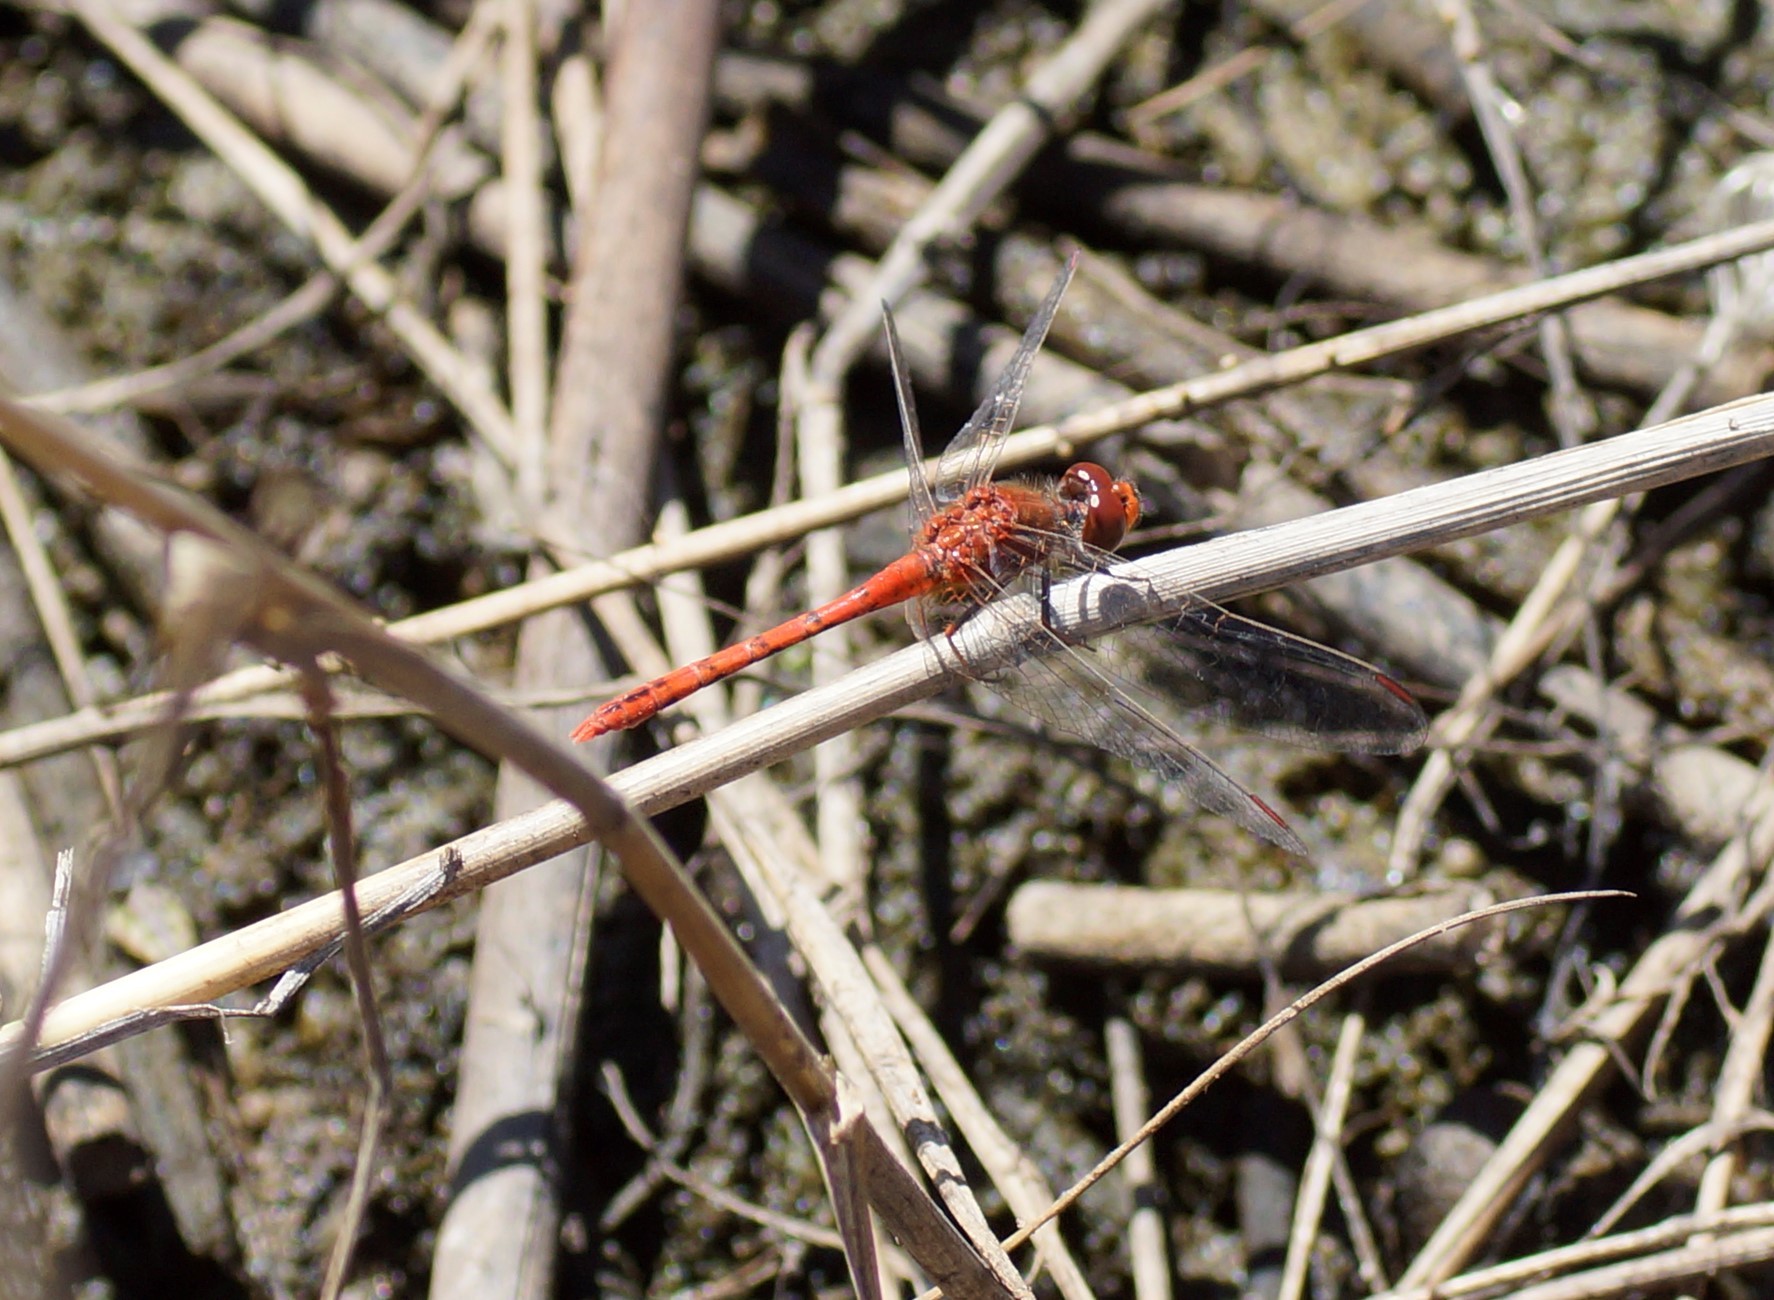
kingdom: Animalia
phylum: Arthropoda
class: Insecta
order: Odonata
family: Libellulidae
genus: Diplacodes
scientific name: Diplacodes bipunctata
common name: Red percher dragonfly
